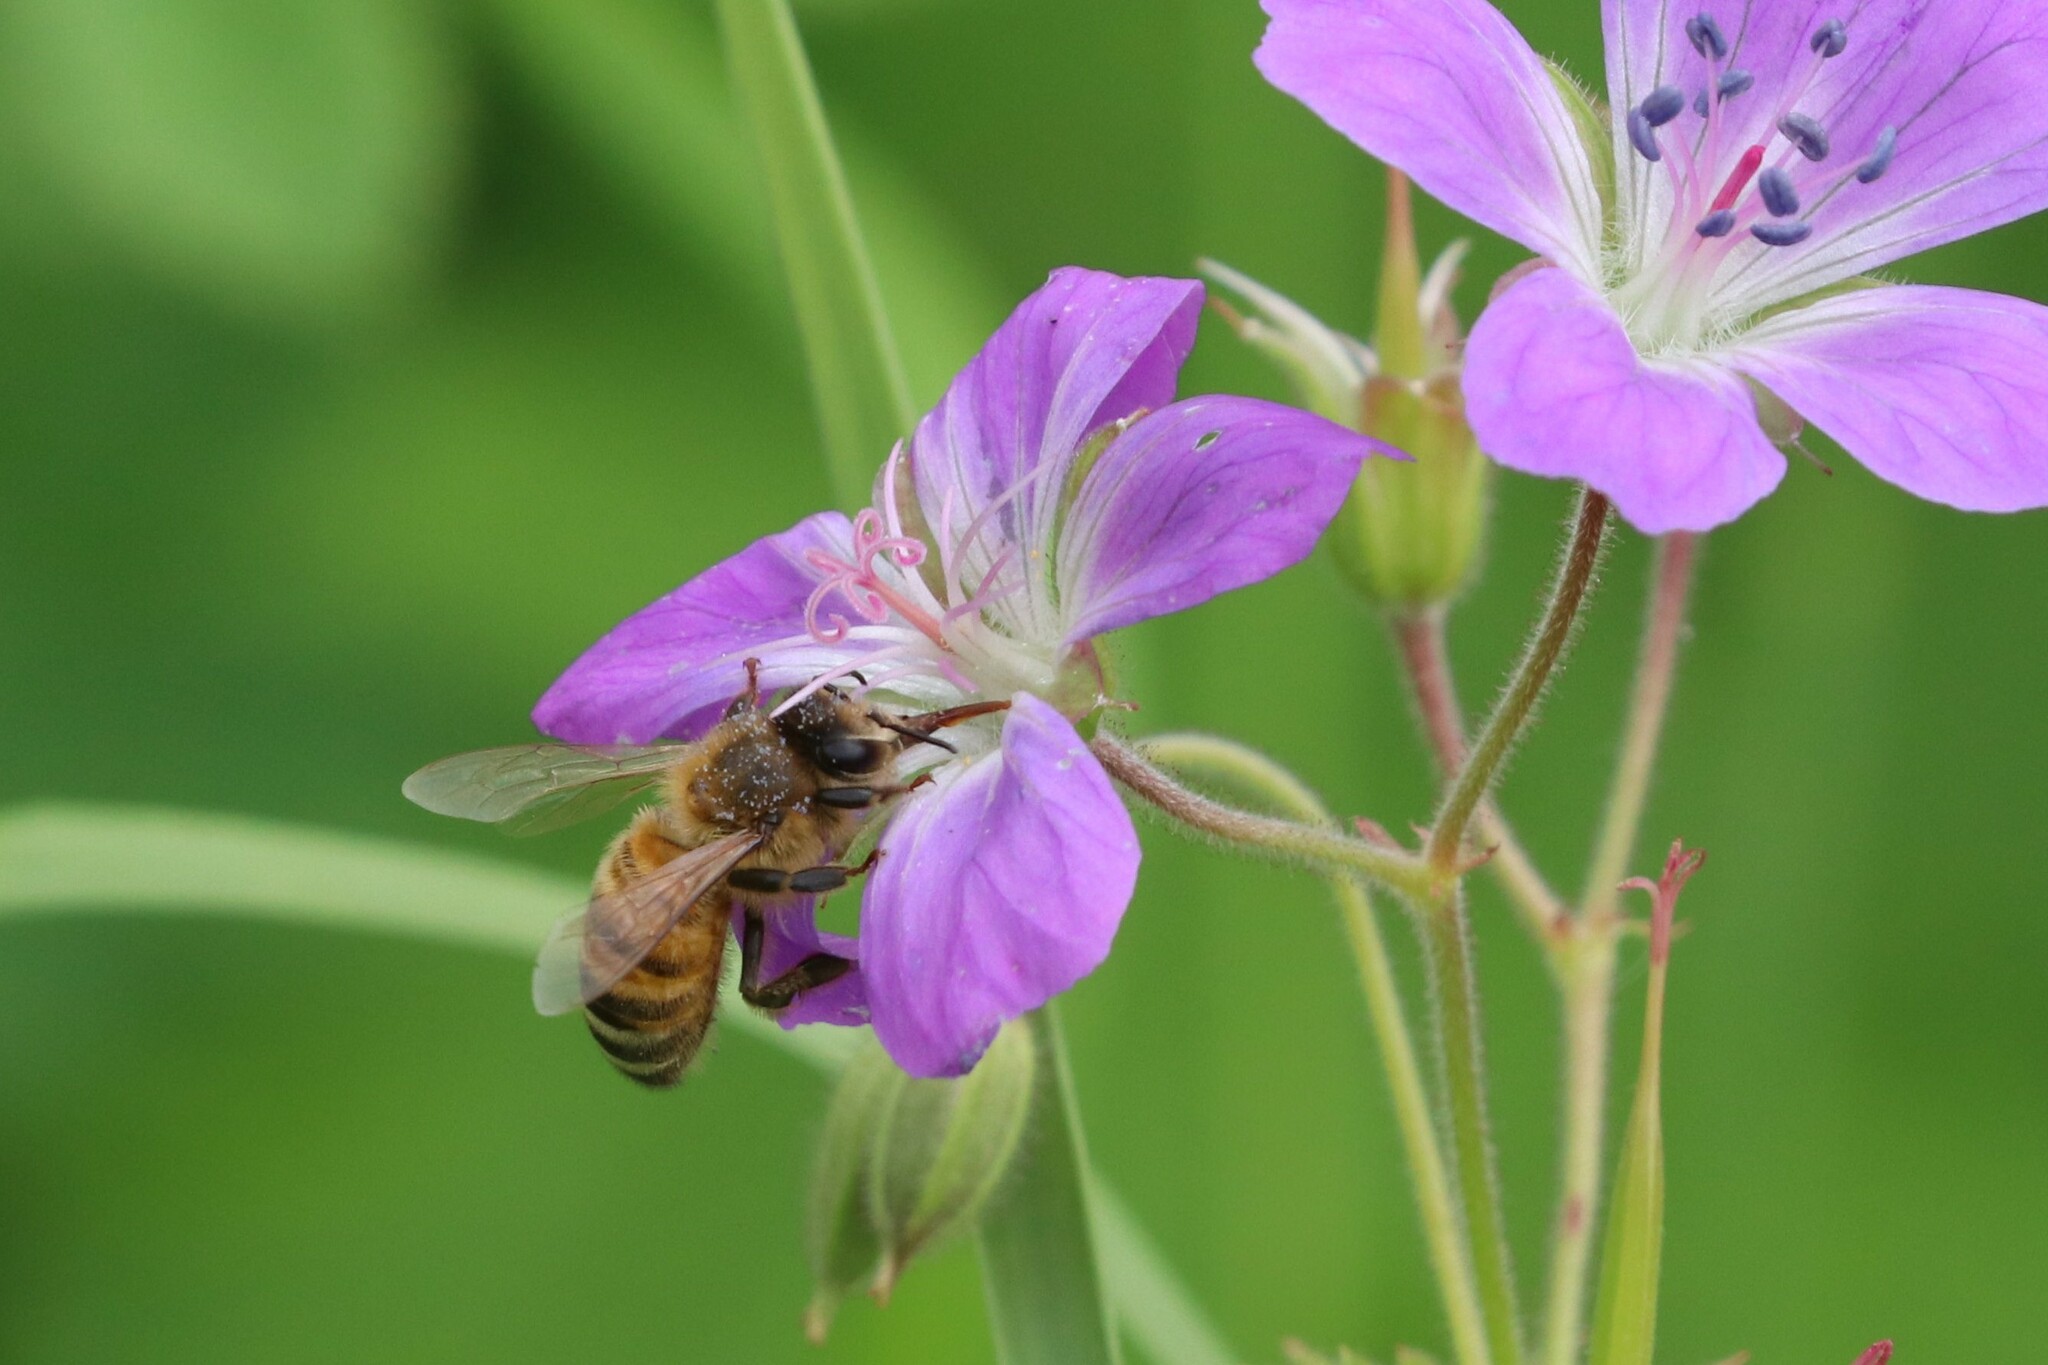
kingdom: Animalia
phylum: Arthropoda
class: Insecta
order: Hymenoptera
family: Apidae
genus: Apis
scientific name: Apis mellifera
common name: Honey bee
